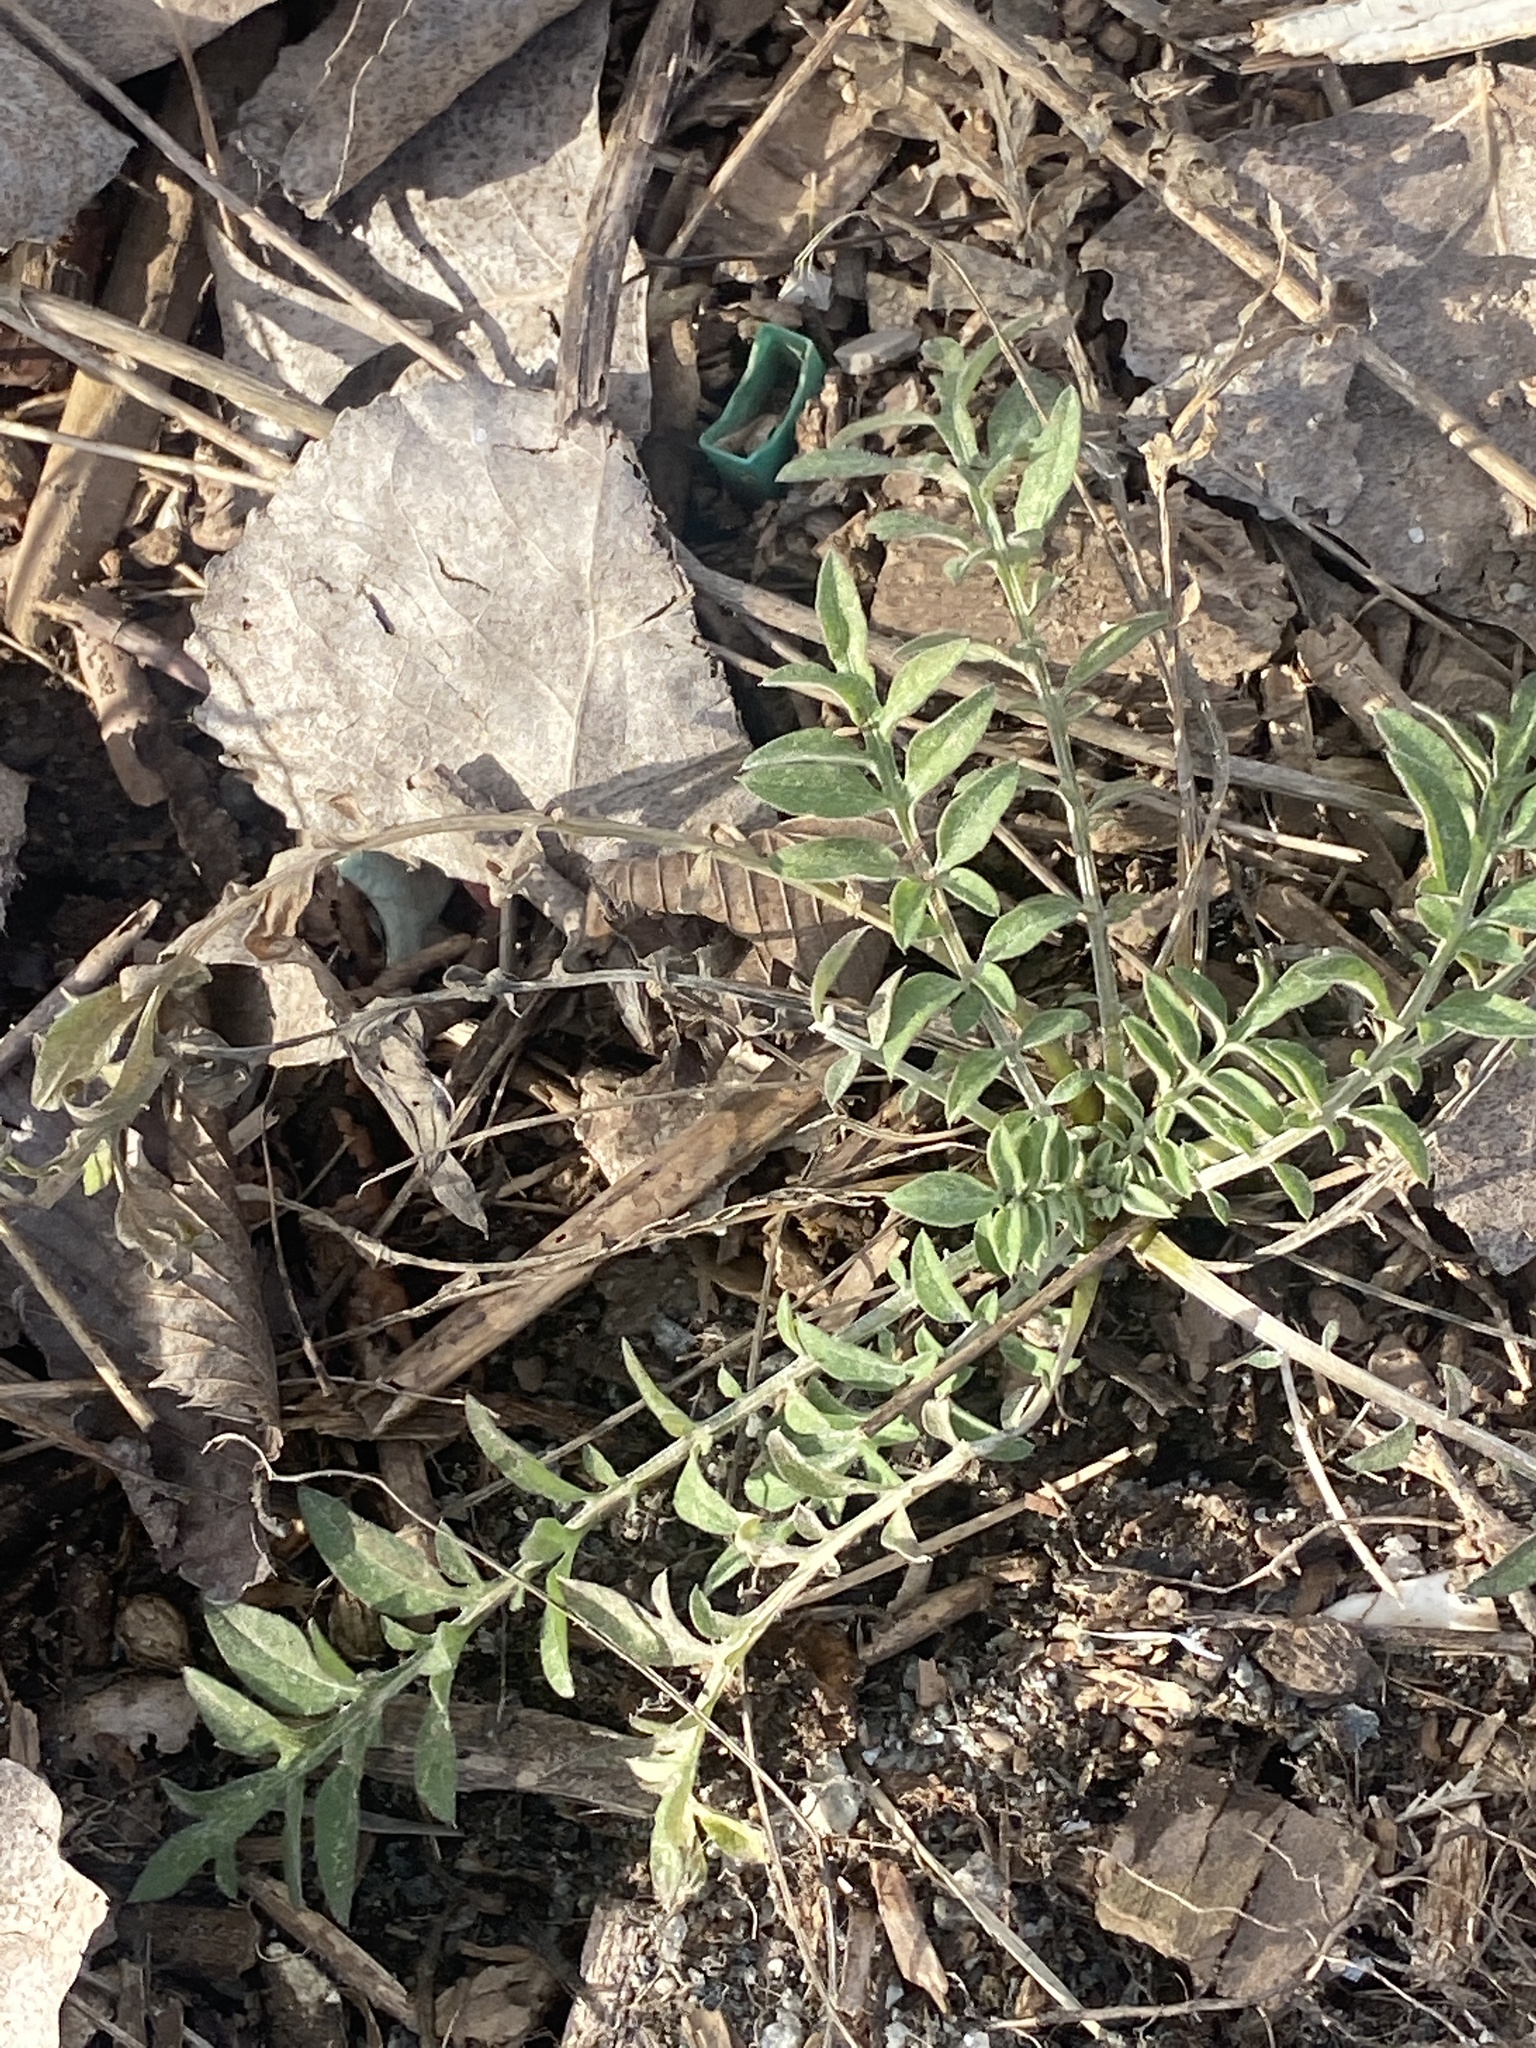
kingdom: Plantae
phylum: Tracheophyta
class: Magnoliopsida
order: Asterales
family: Asteraceae
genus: Centaurea
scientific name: Centaurea stoebe
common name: Spotted knapweed
